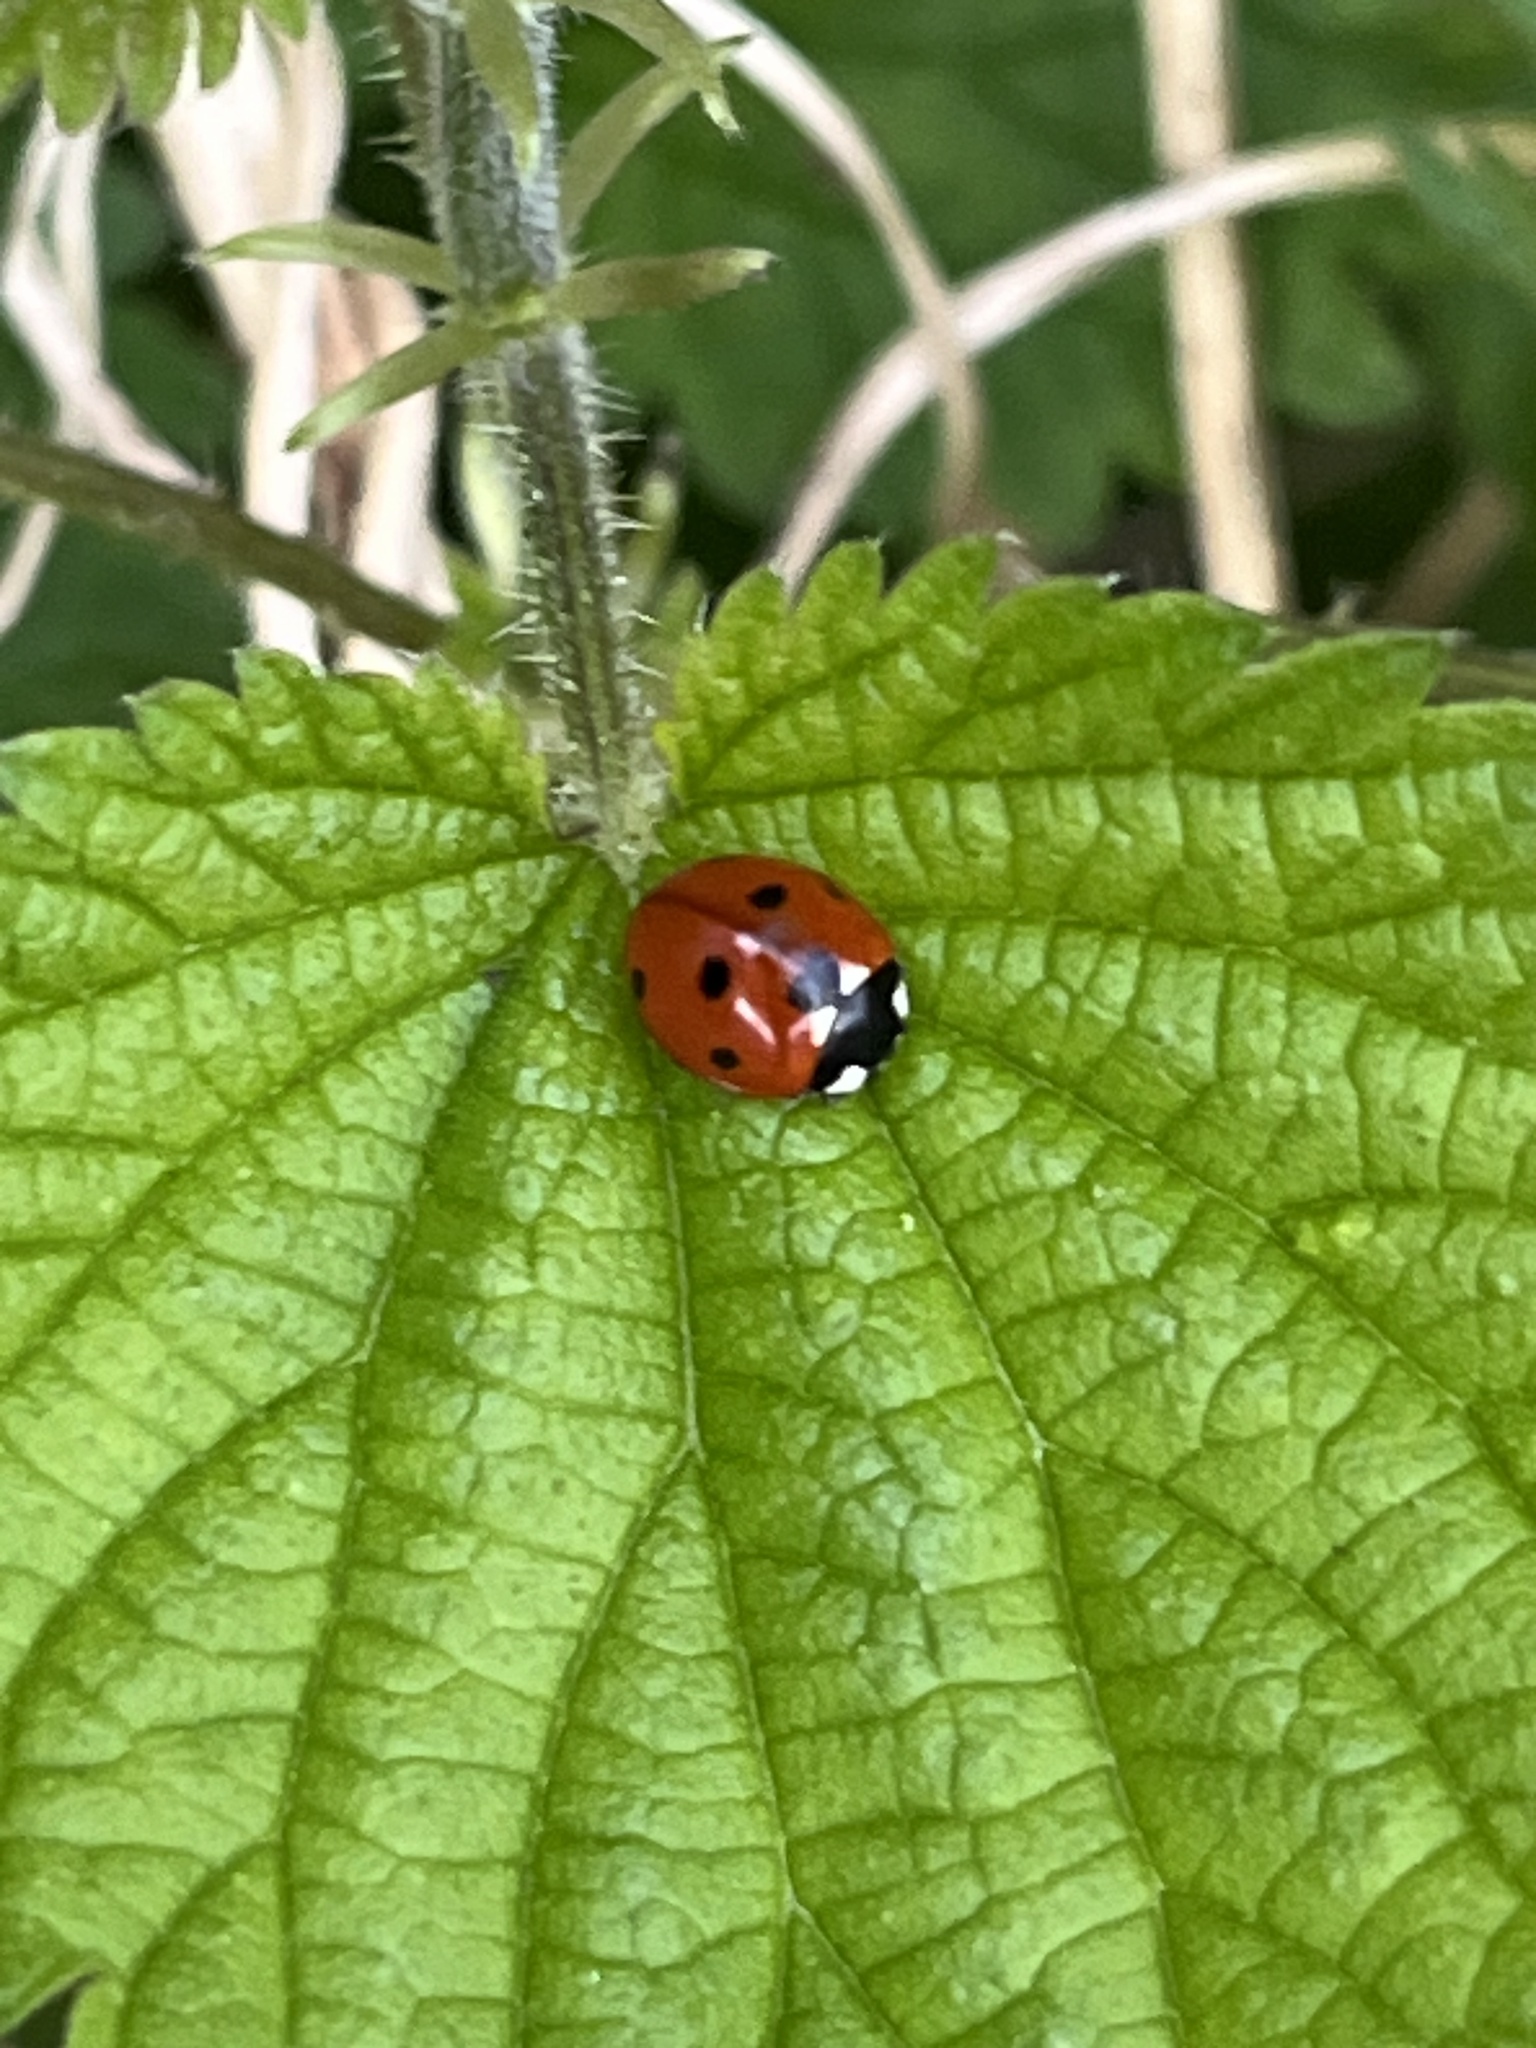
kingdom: Animalia
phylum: Arthropoda
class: Insecta
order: Coleoptera
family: Coccinellidae
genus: Coccinella
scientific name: Coccinella septempunctata
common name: Sevenspotted lady beetle
